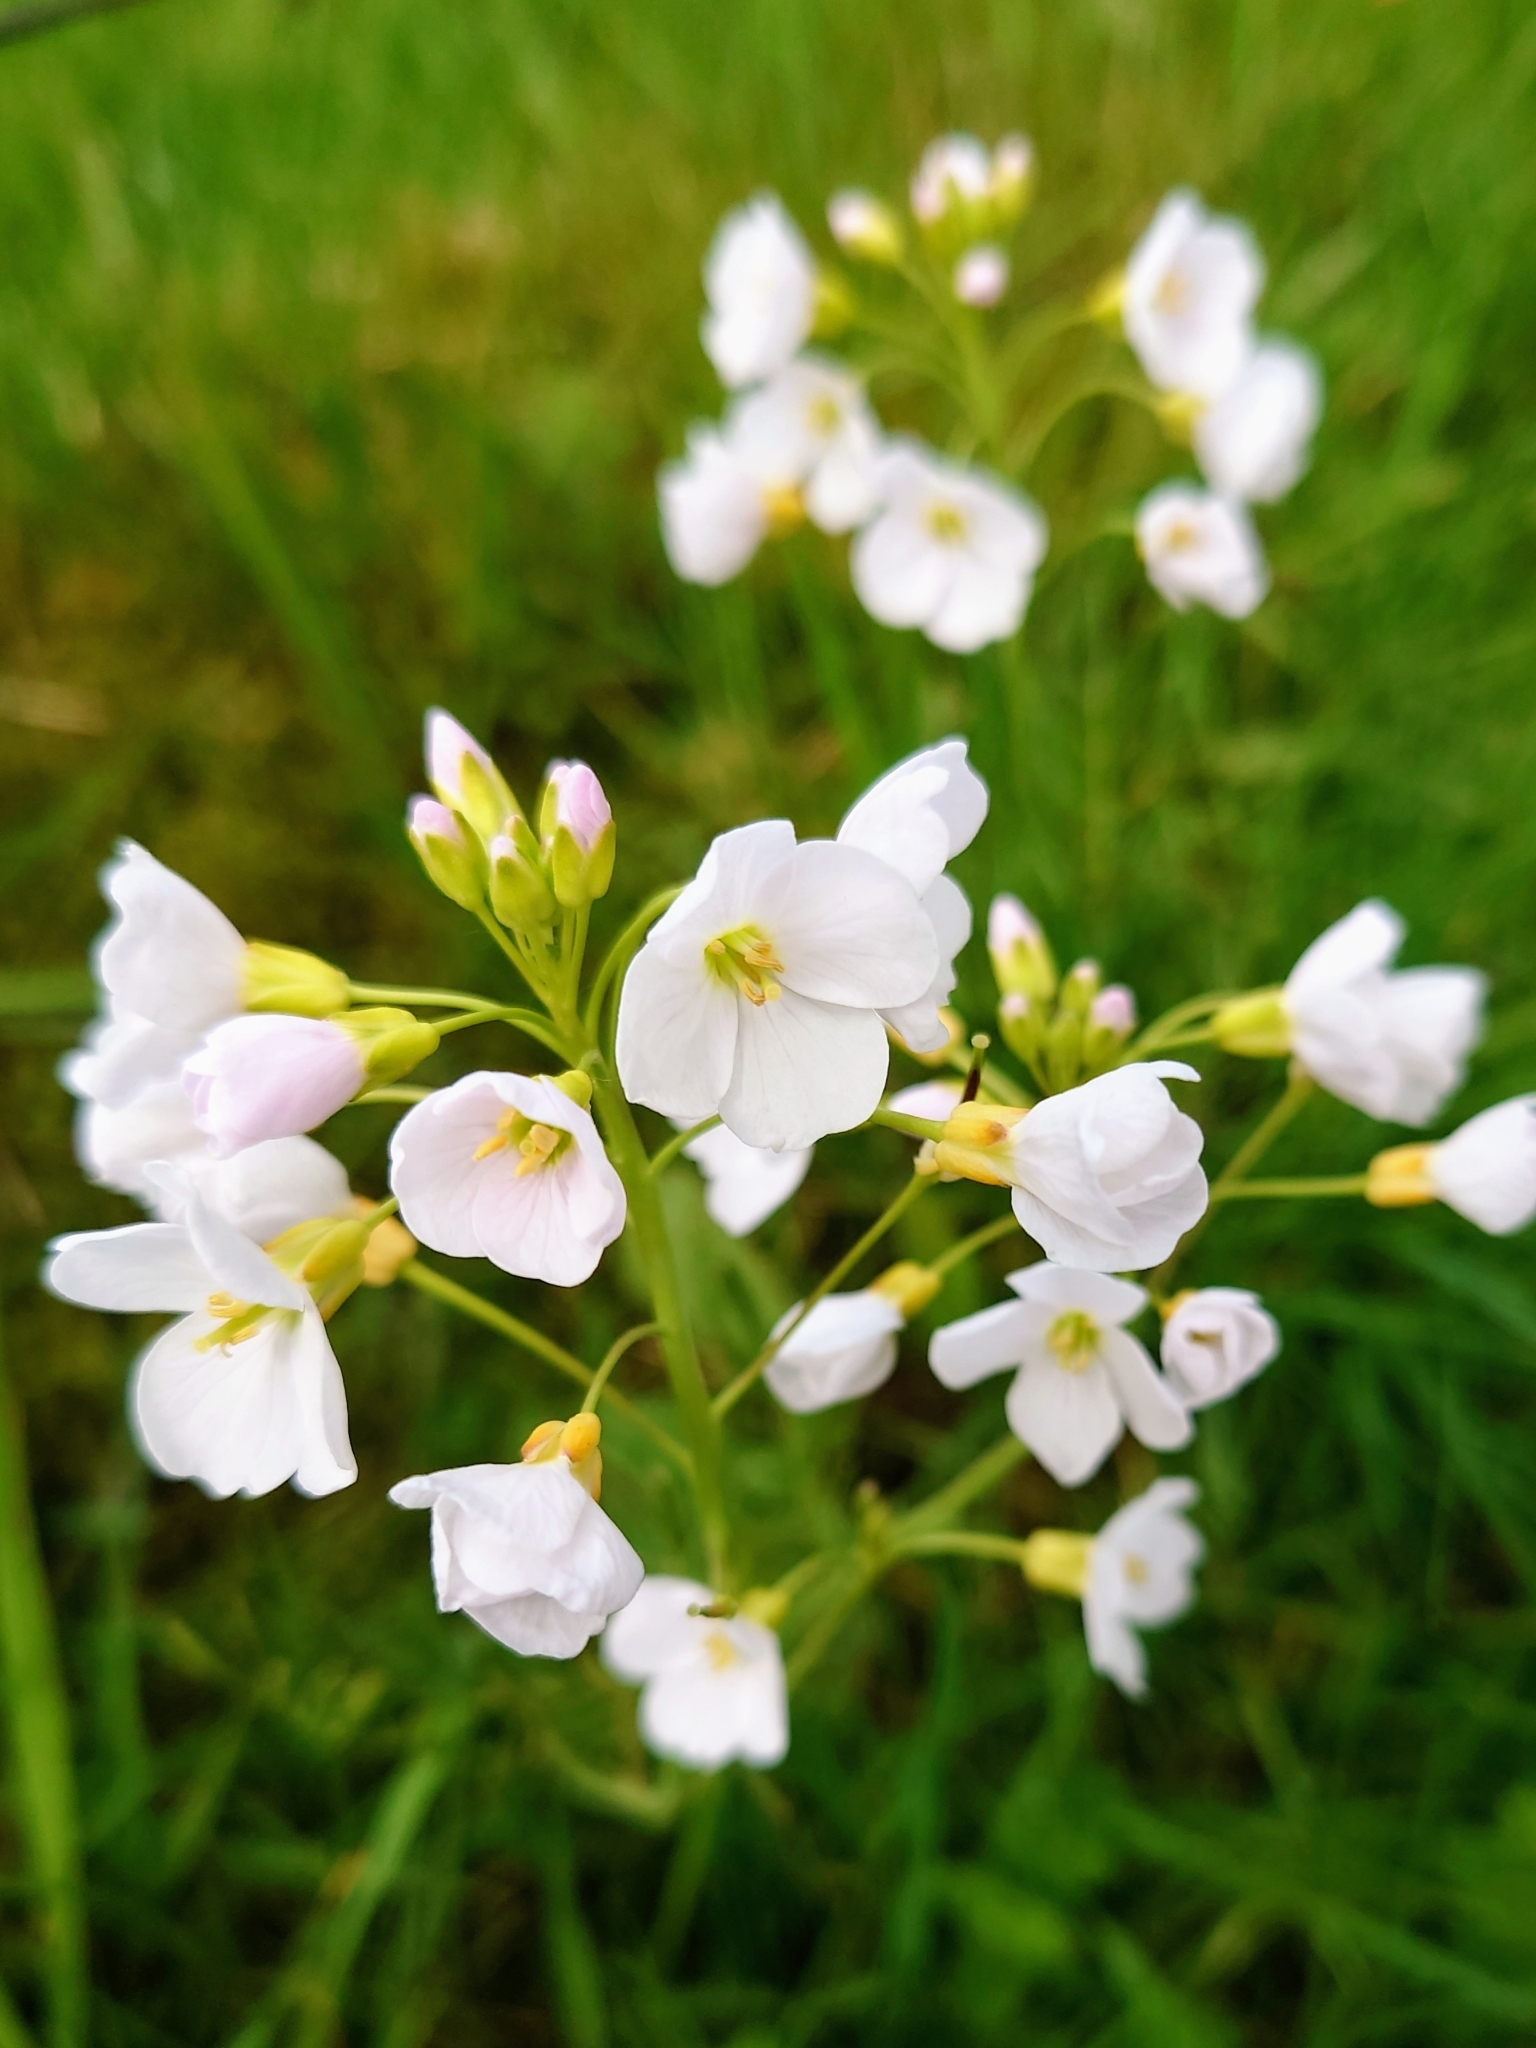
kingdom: Plantae
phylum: Tracheophyta
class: Magnoliopsida
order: Brassicales
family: Brassicaceae
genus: Cardamine
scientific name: Cardamine pratensis
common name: Cuckoo flower
